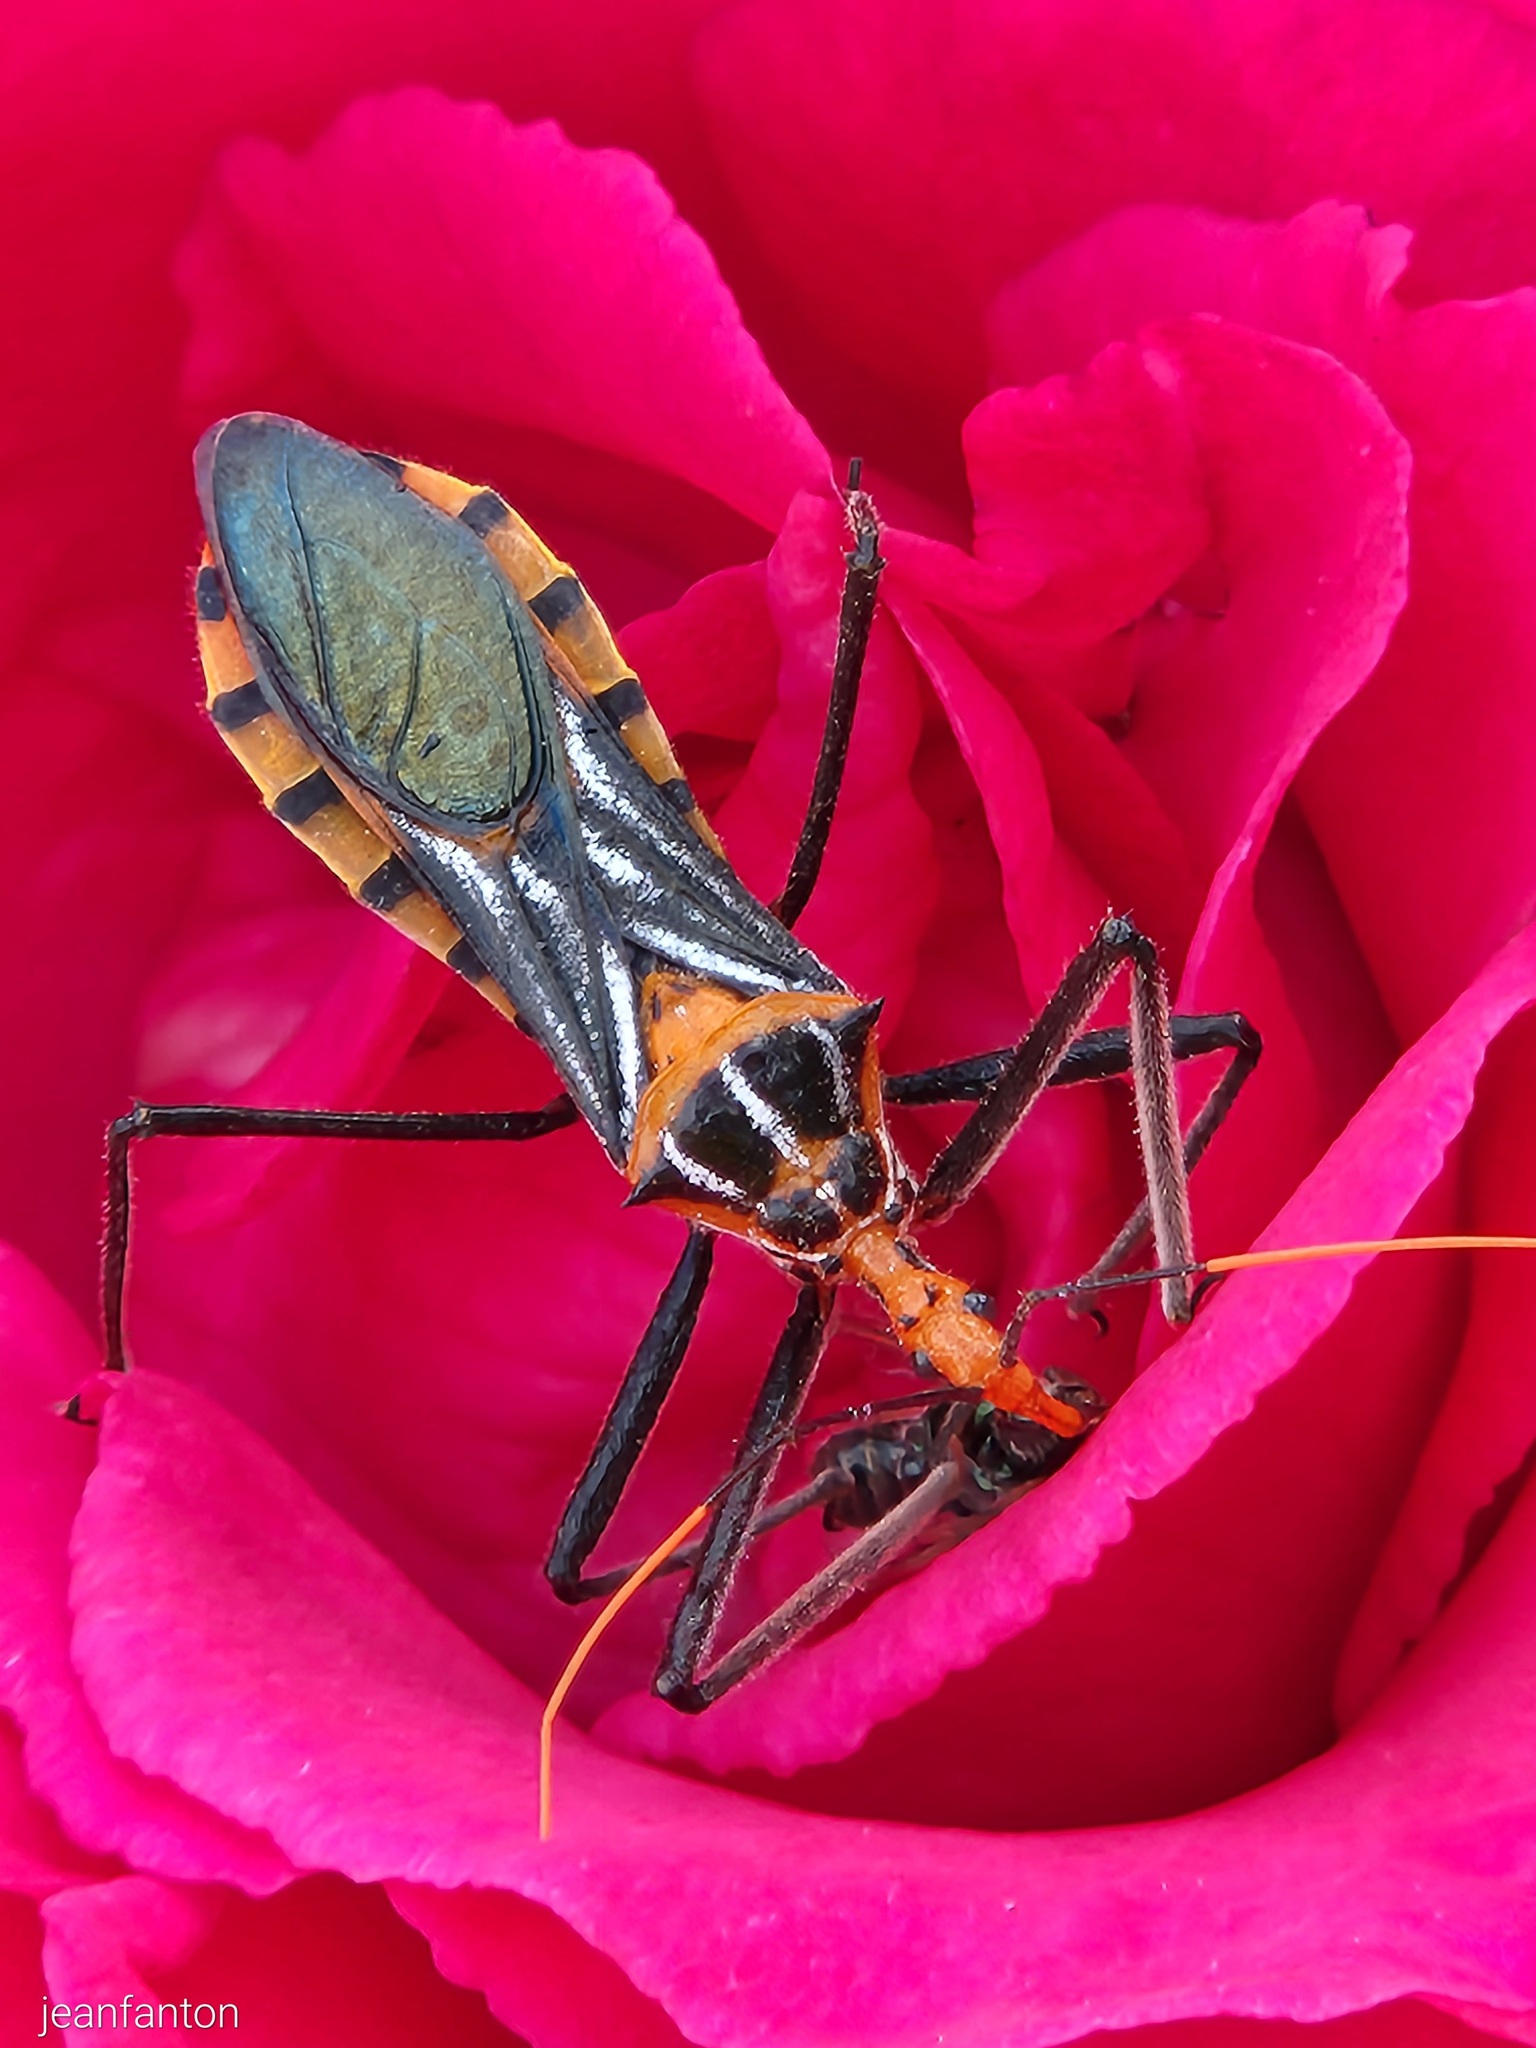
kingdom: Animalia
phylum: Arthropoda
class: Insecta
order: Hemiptera
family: Reduviidae
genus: Zelus
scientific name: Zelus leucogrammus
